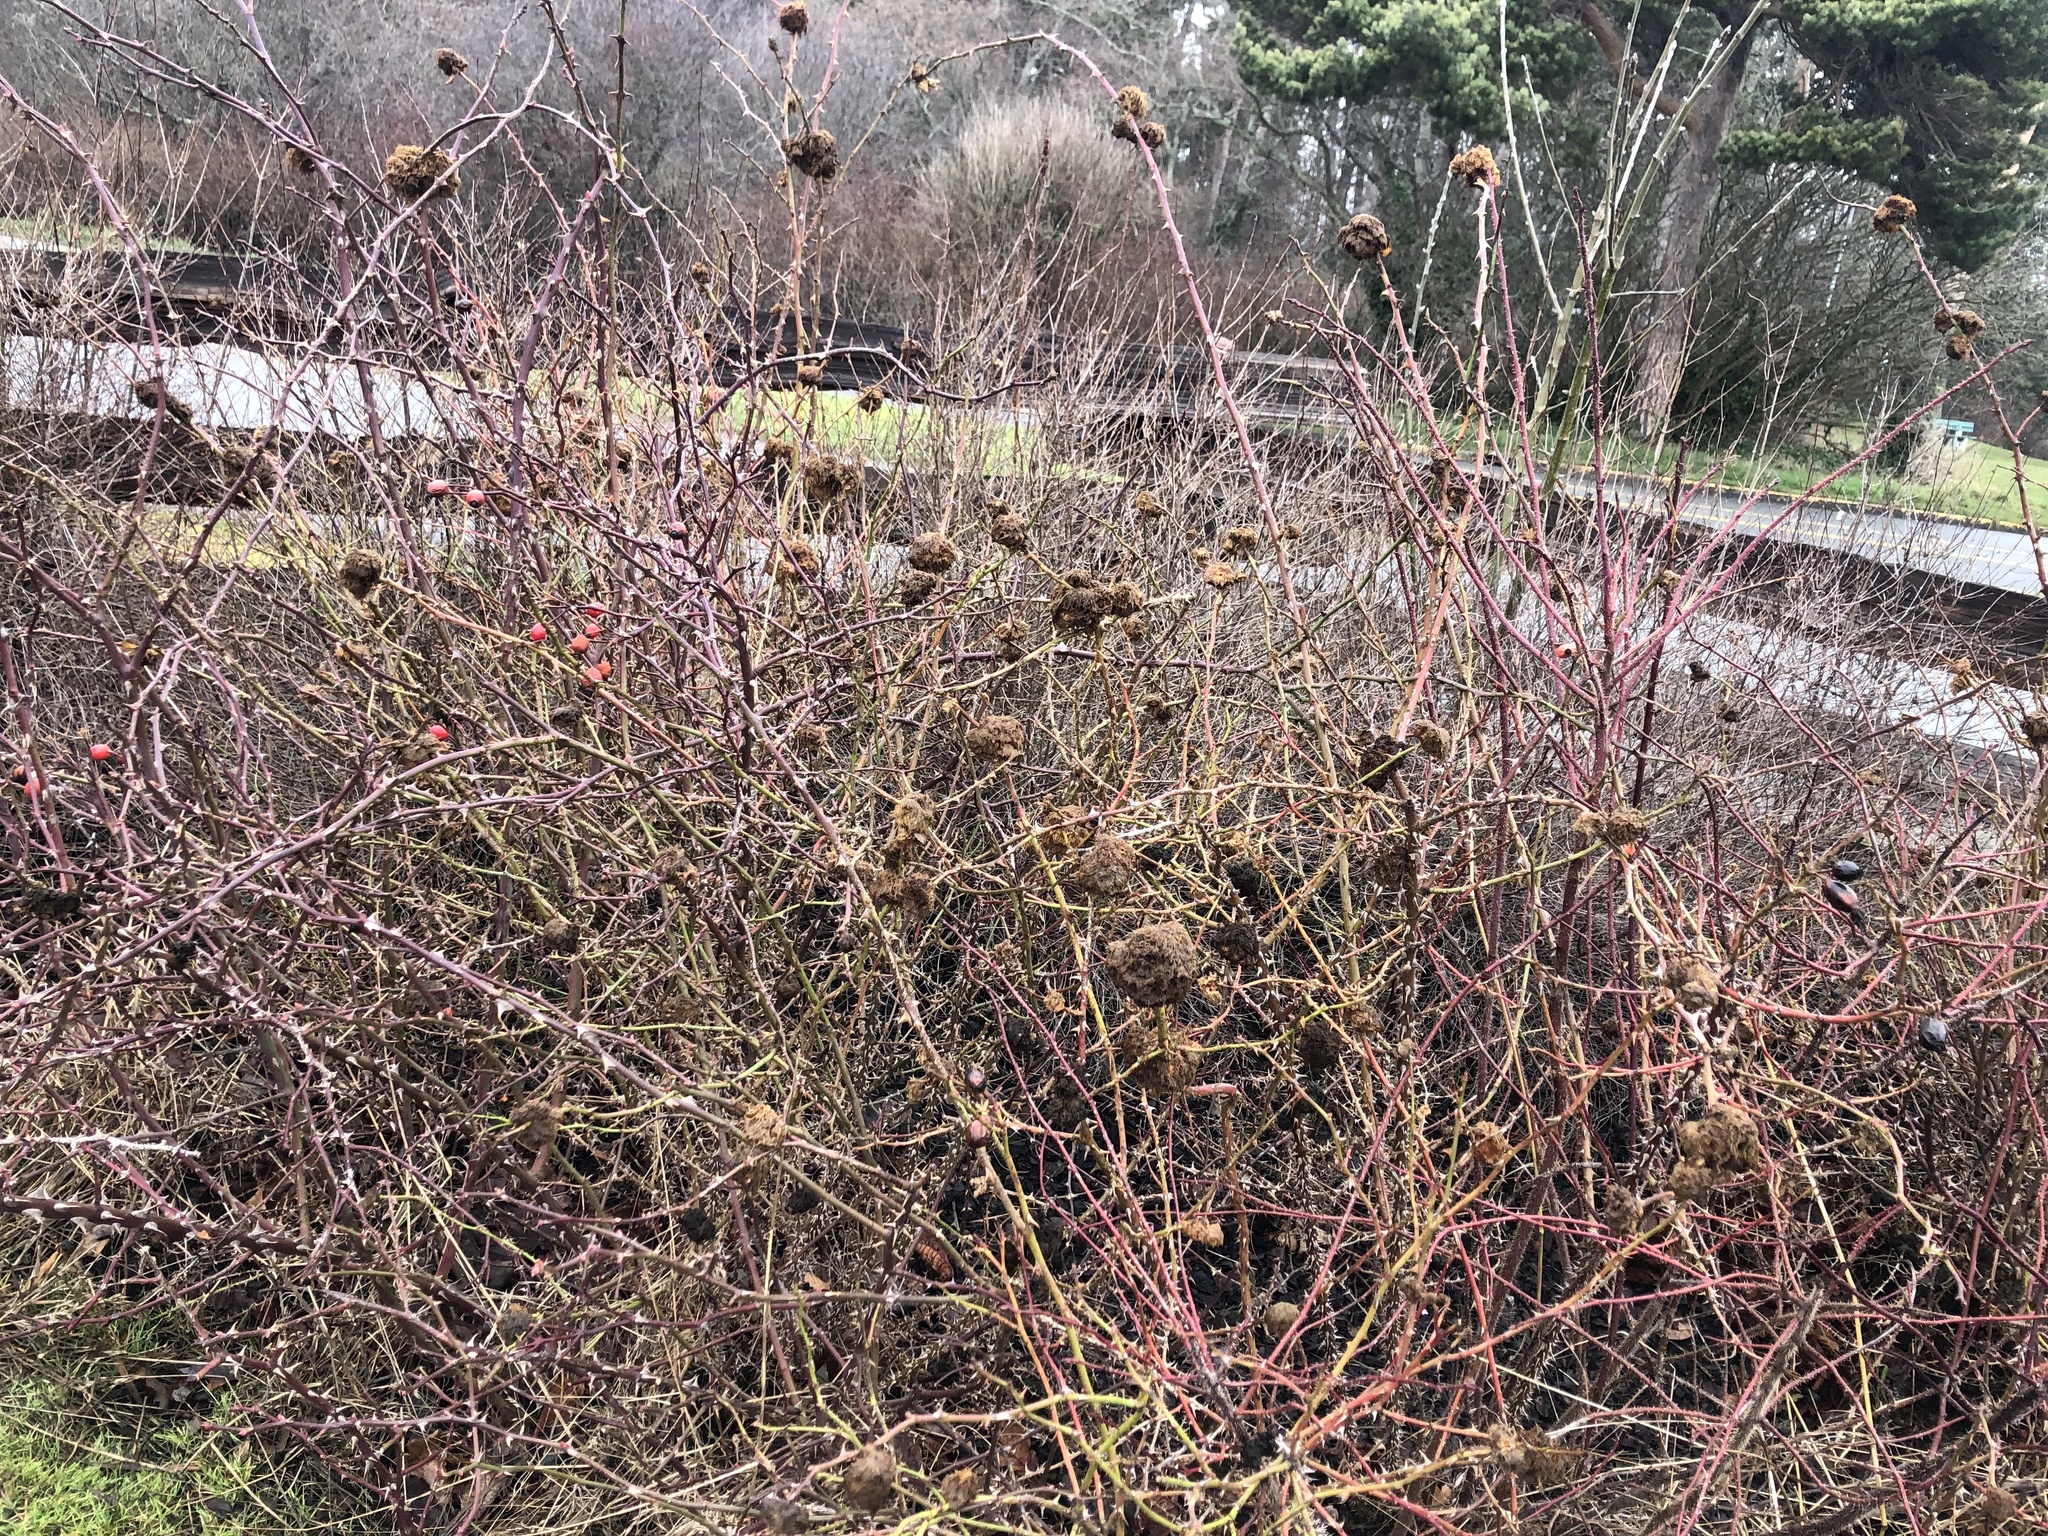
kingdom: Animalia
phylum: Arthropoda
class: Insecta
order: Hymenoptera
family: Cynipidae
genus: Diplolepis
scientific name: Diplolepis rosae
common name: Bedeguar gall
